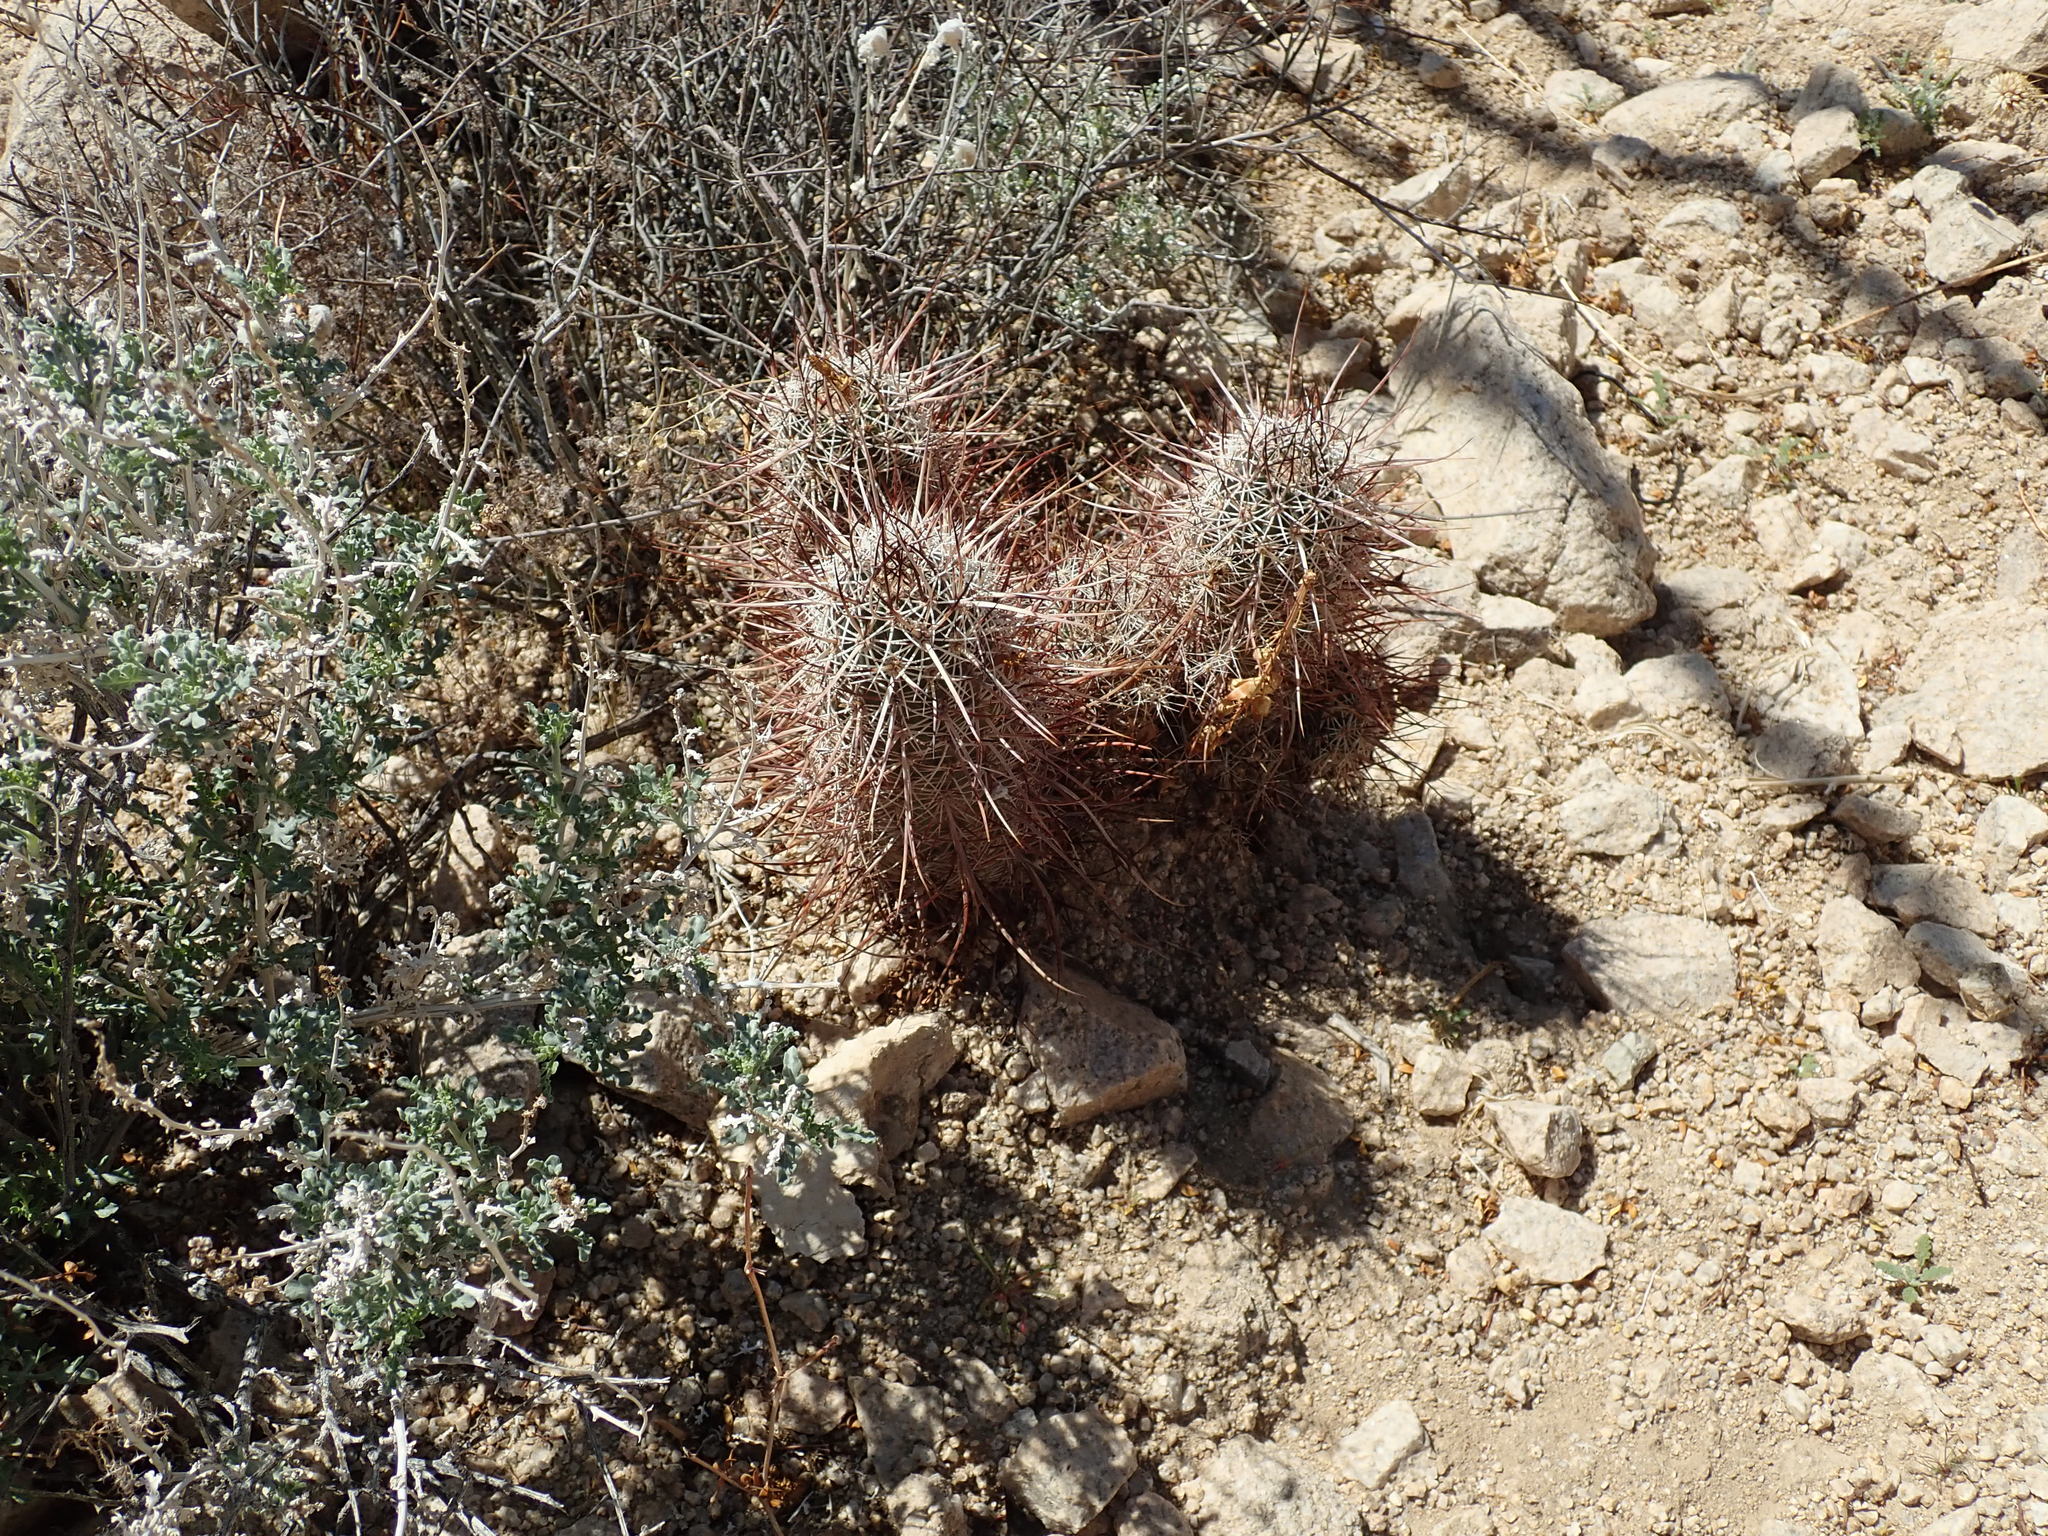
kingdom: Plantae
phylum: Tracheophyta
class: Magnoliopsida
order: Caryophyllales
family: Cactaceae
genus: Echinocereus
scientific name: Echinocereus engelmannii
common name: Engelmann's hedgehog cactus
